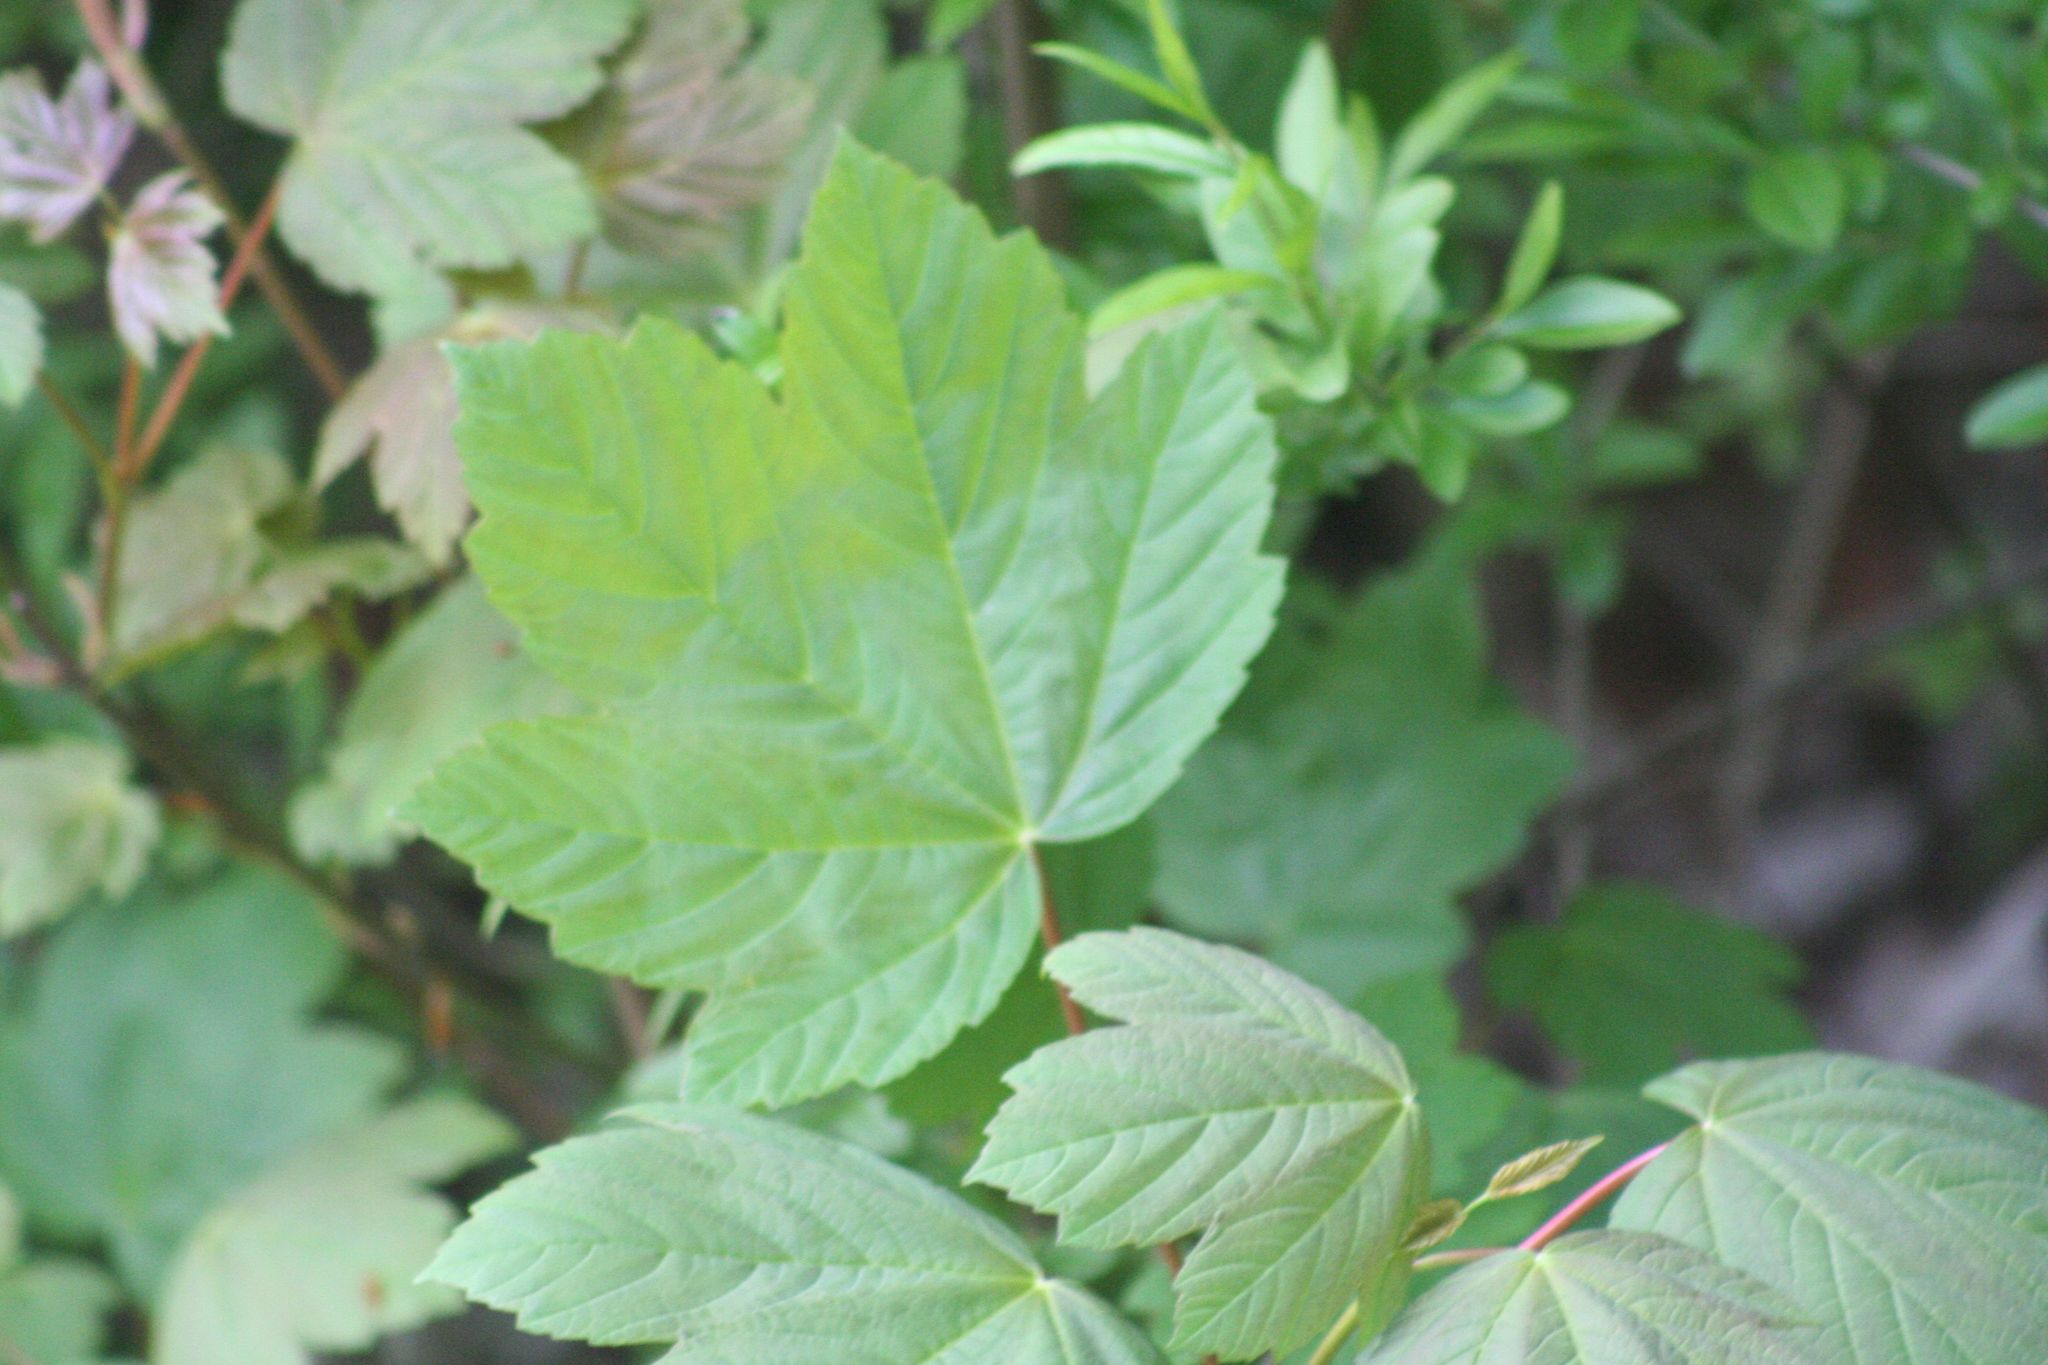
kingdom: Plantae
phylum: Tracheophyta
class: Magnoliopsida
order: Sapindales
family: Sapindaceae
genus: Acer
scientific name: Acer pseudoplatanus
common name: Sycamore
